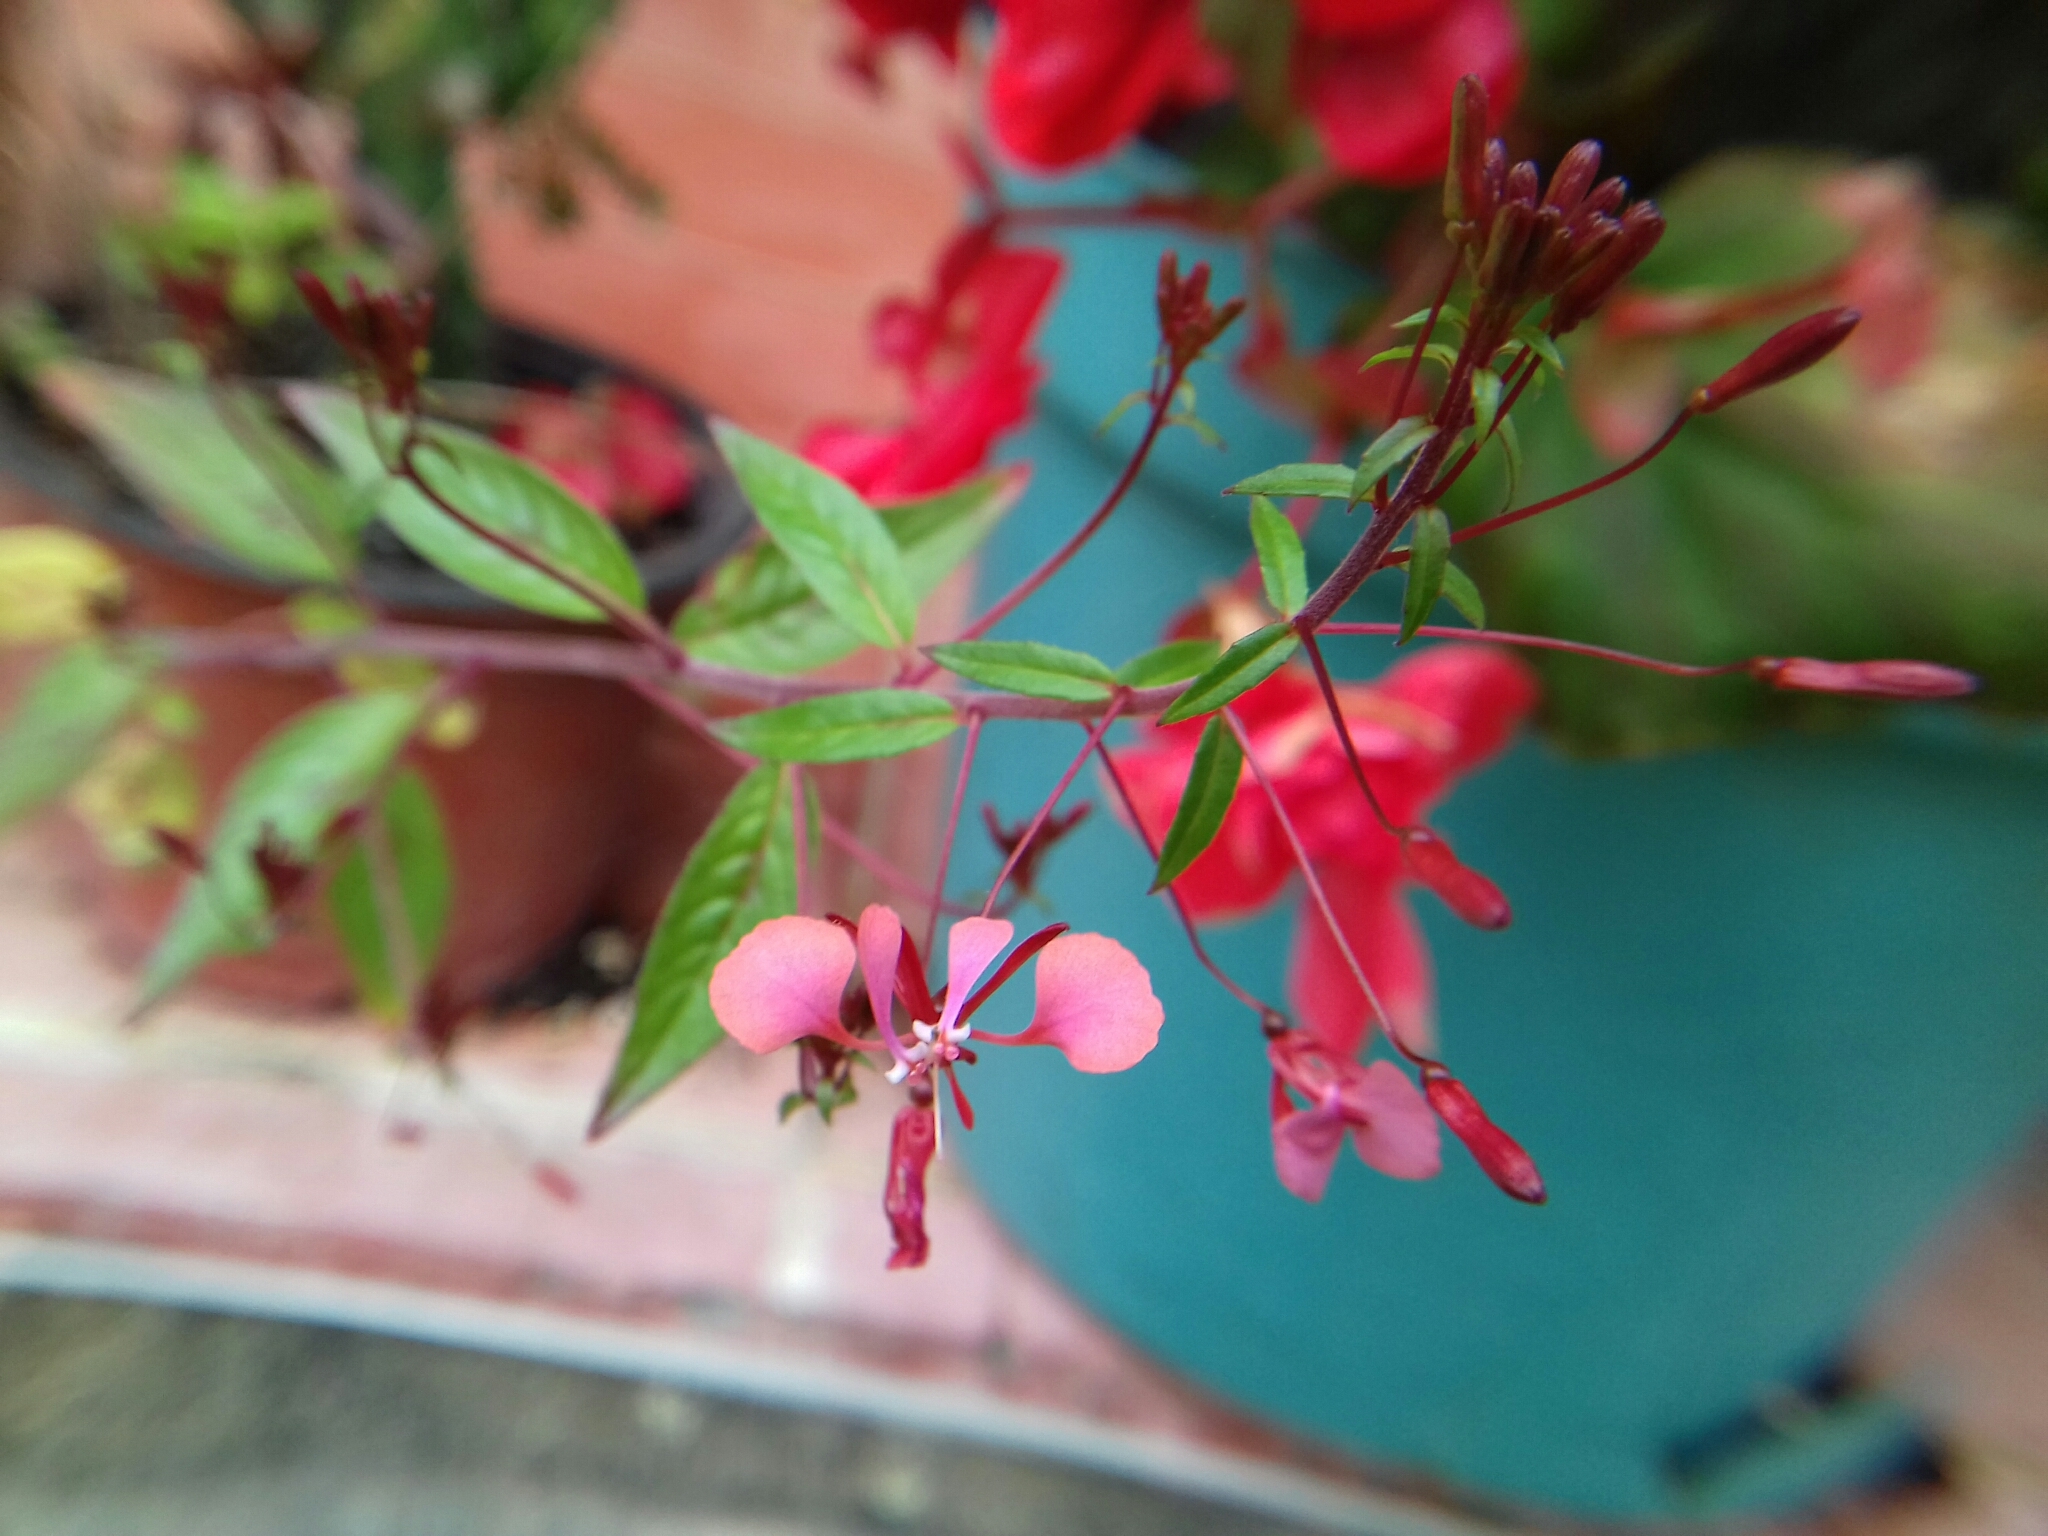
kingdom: Plantae
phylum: Tracheophyta
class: Magnoliopsida
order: Myrtales
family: Onagraceae
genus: Lopezia
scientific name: Lopezia racemosa
